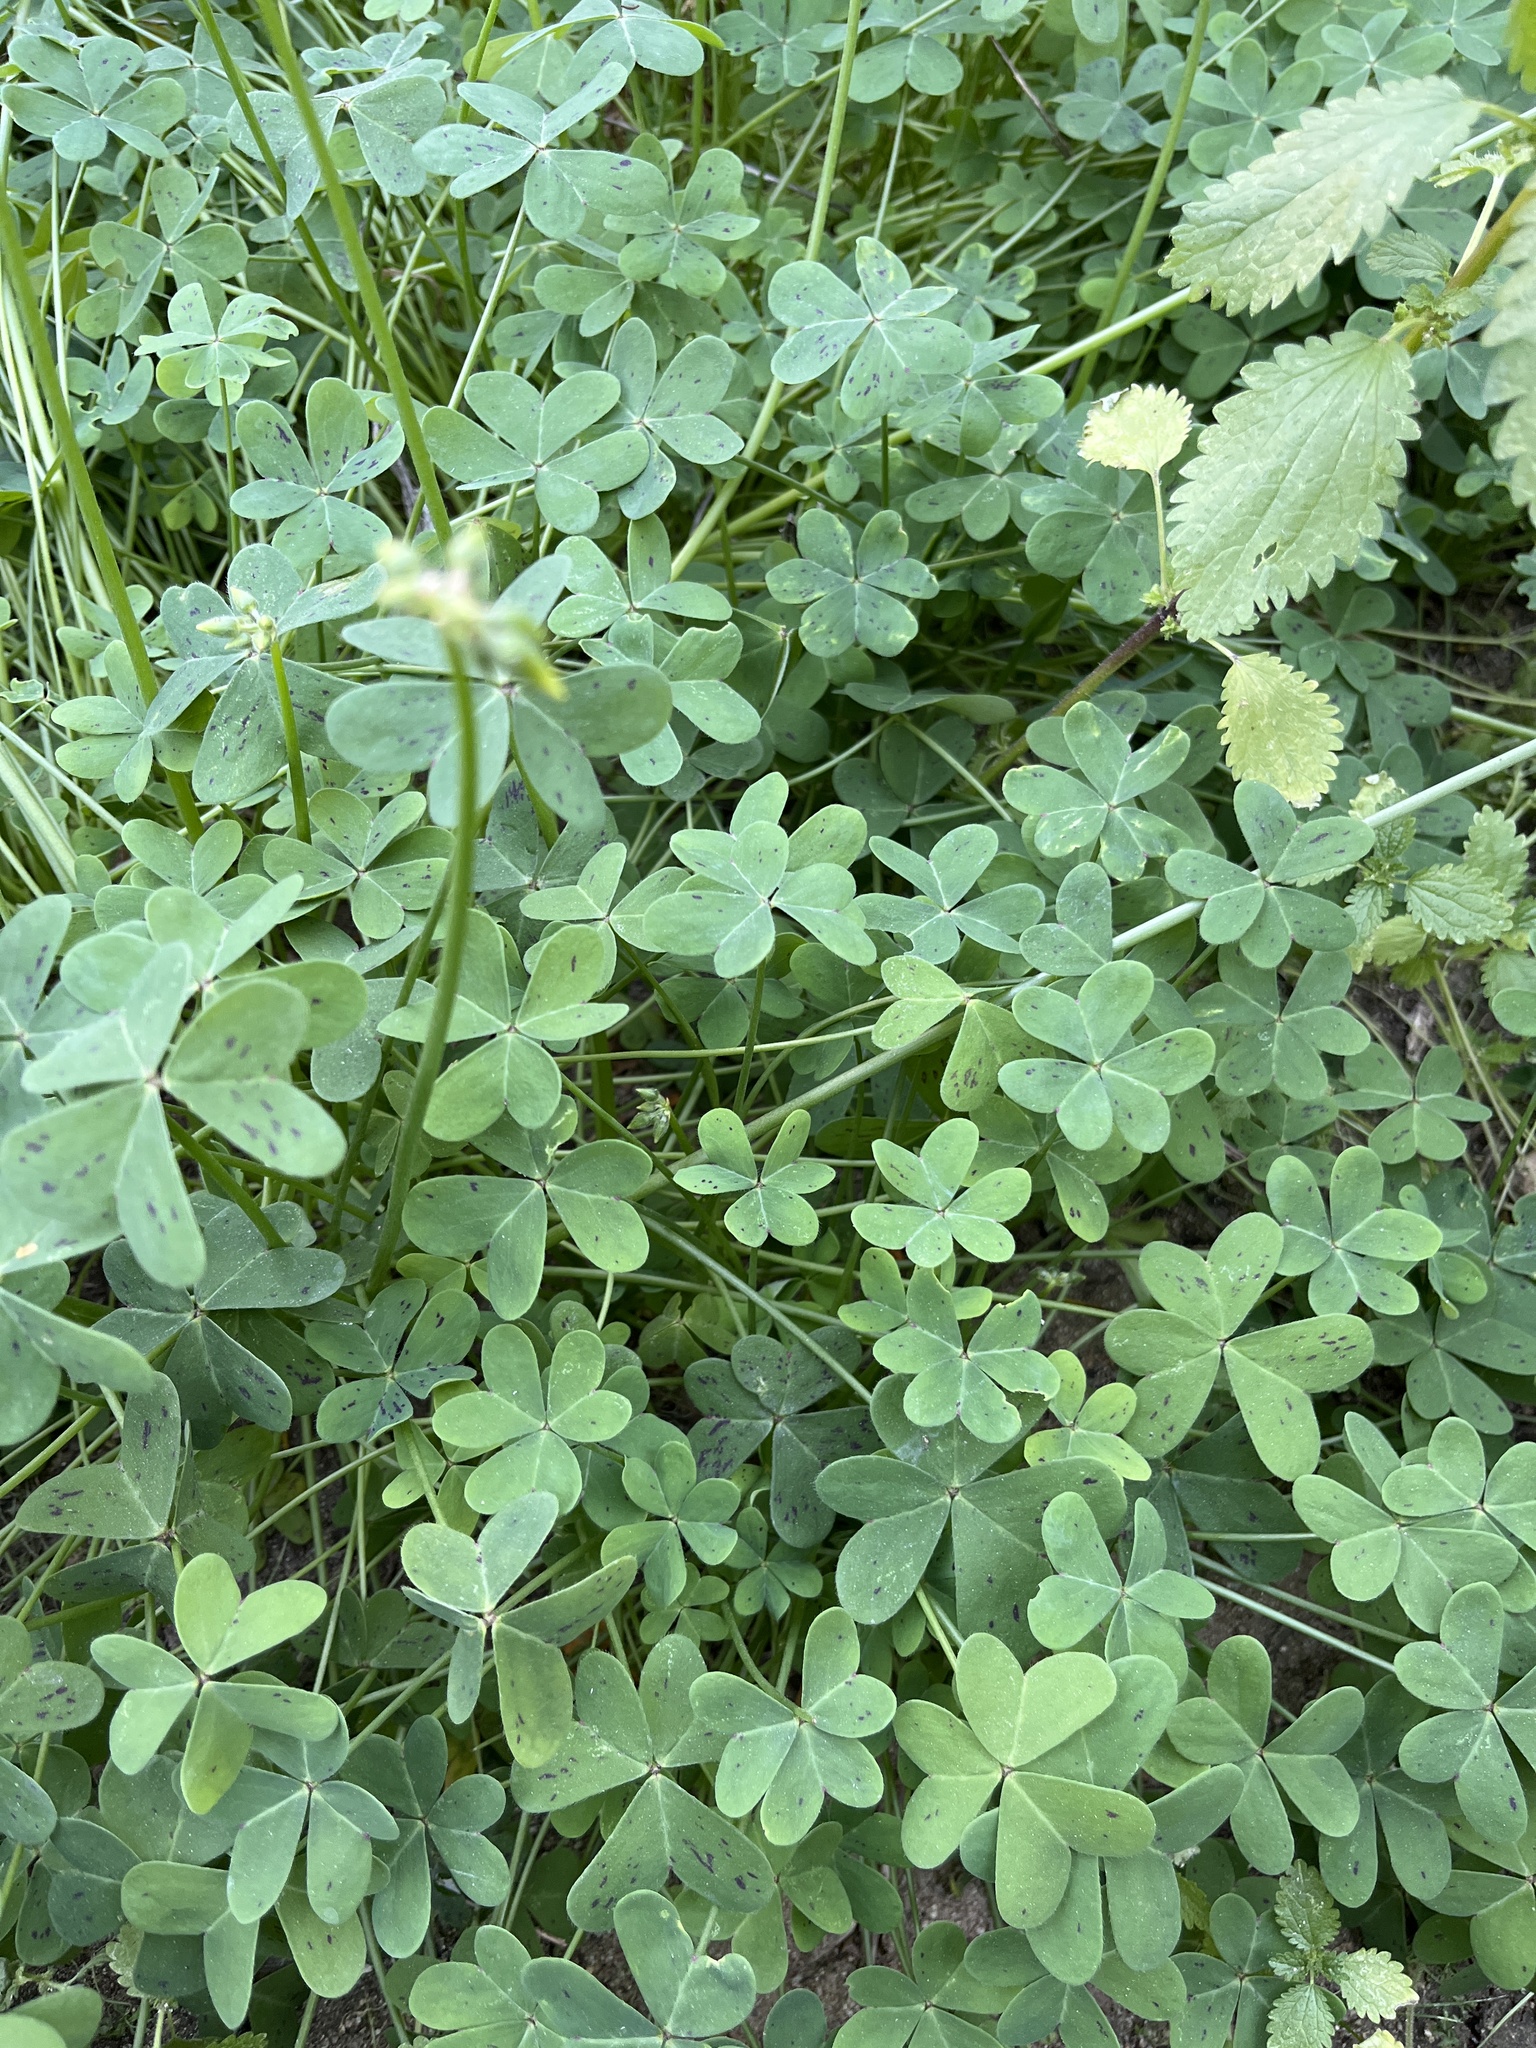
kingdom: Plantae
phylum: Tracheophyta
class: Magnoliopsida
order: Oxalidales
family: Oxalidaceae
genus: Oxalis
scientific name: Oxalis pes-caprae
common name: Bermuda-buttercup
